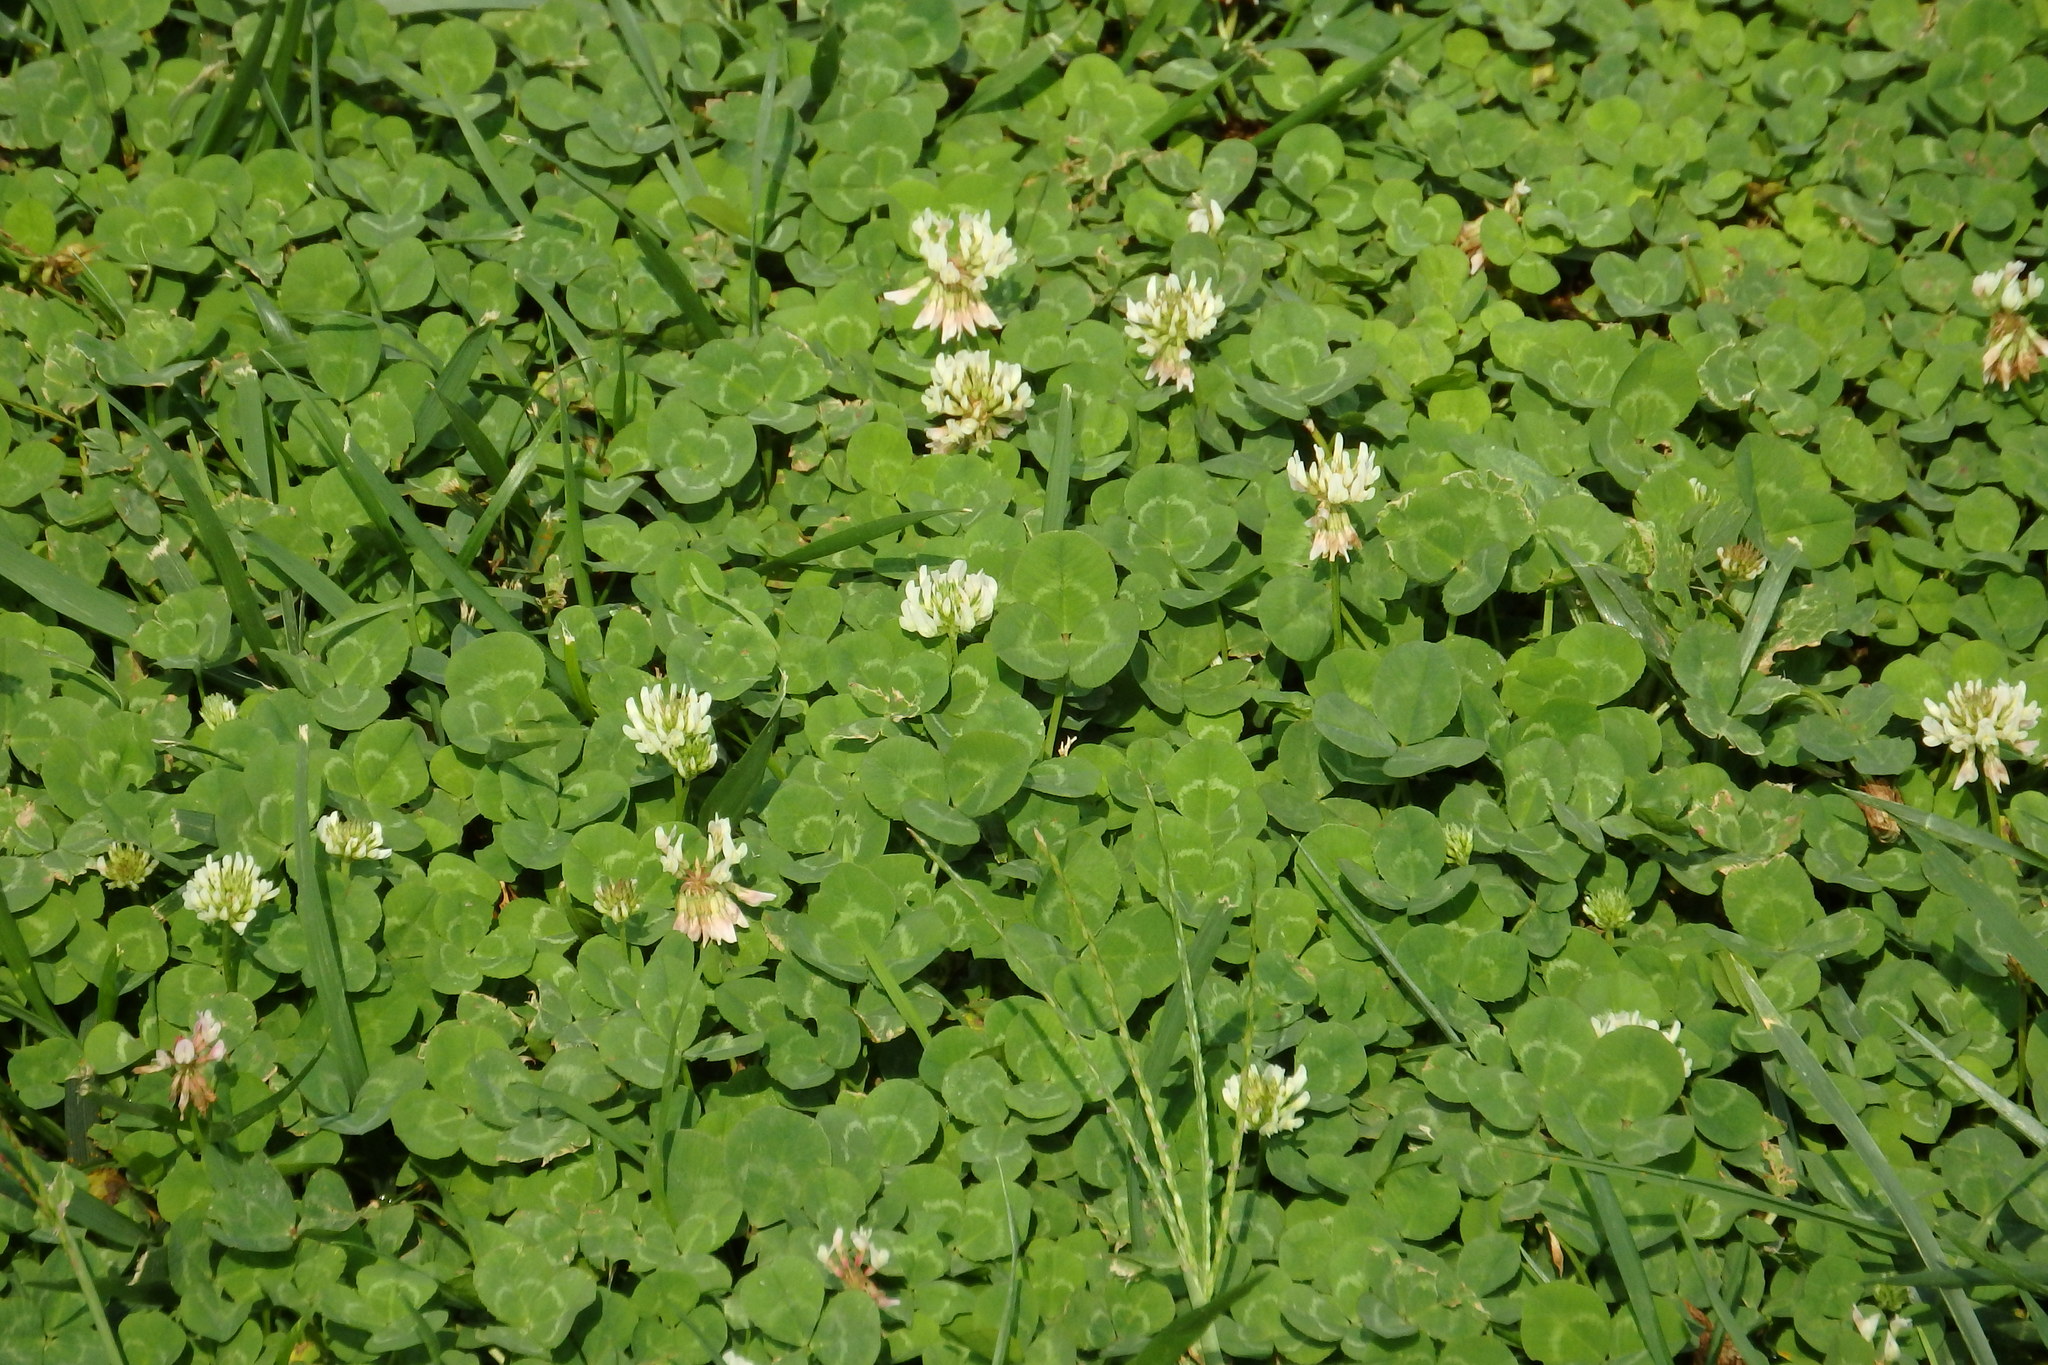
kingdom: Plantae
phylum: Tracheophyta
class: Magnoliopsida
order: Fabales
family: Fabaceae
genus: Trifolium
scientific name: Trifolium repens
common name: White clover
